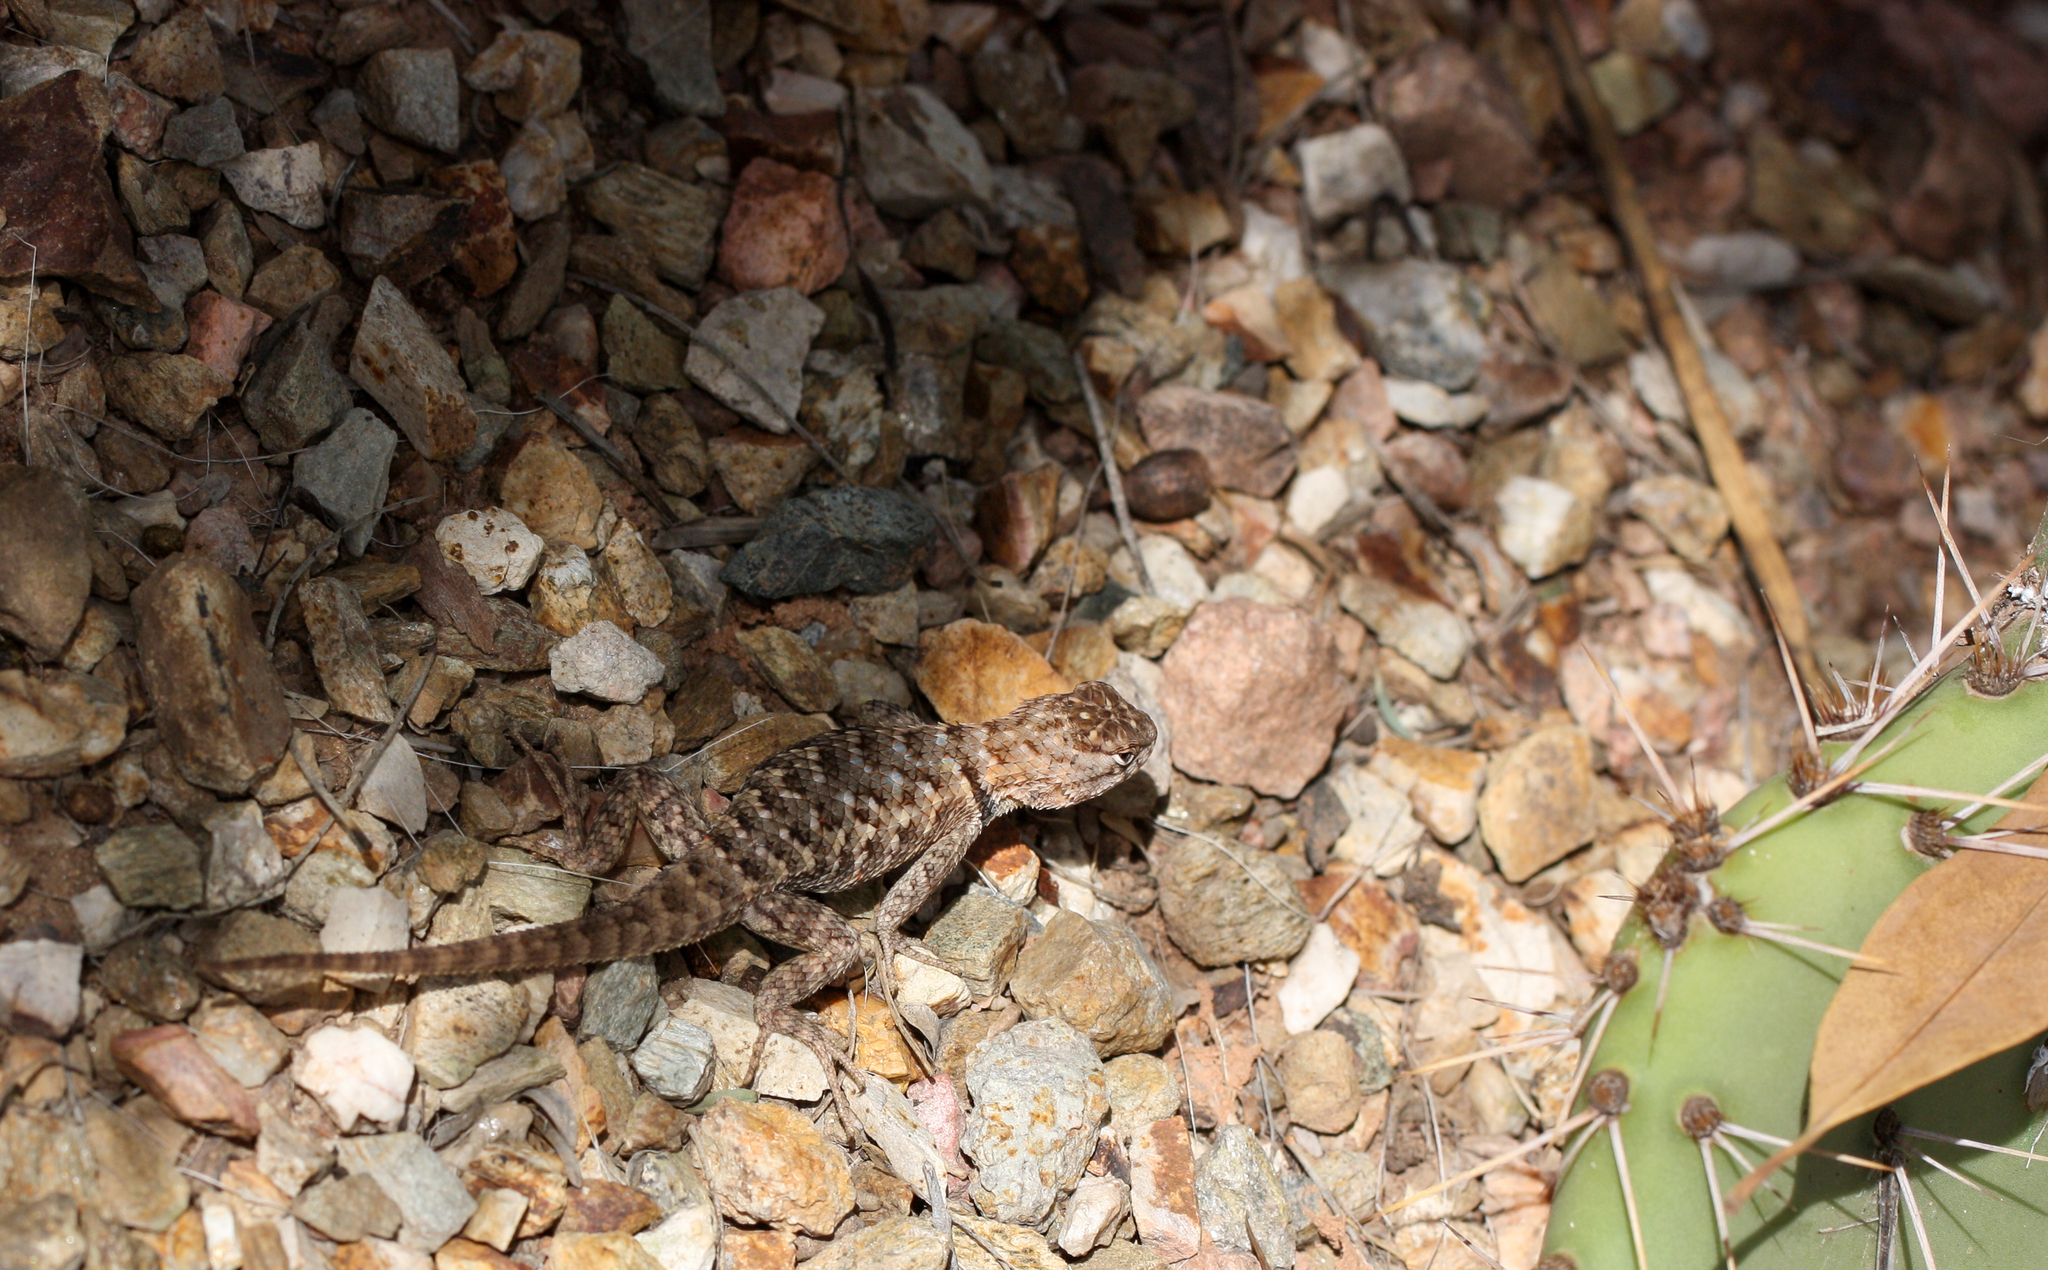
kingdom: Animalia
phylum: Chordata
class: Squamata
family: Phrynosomatidae
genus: Sceloporus
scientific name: Sceloporus magister
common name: Desert spiny lizard
